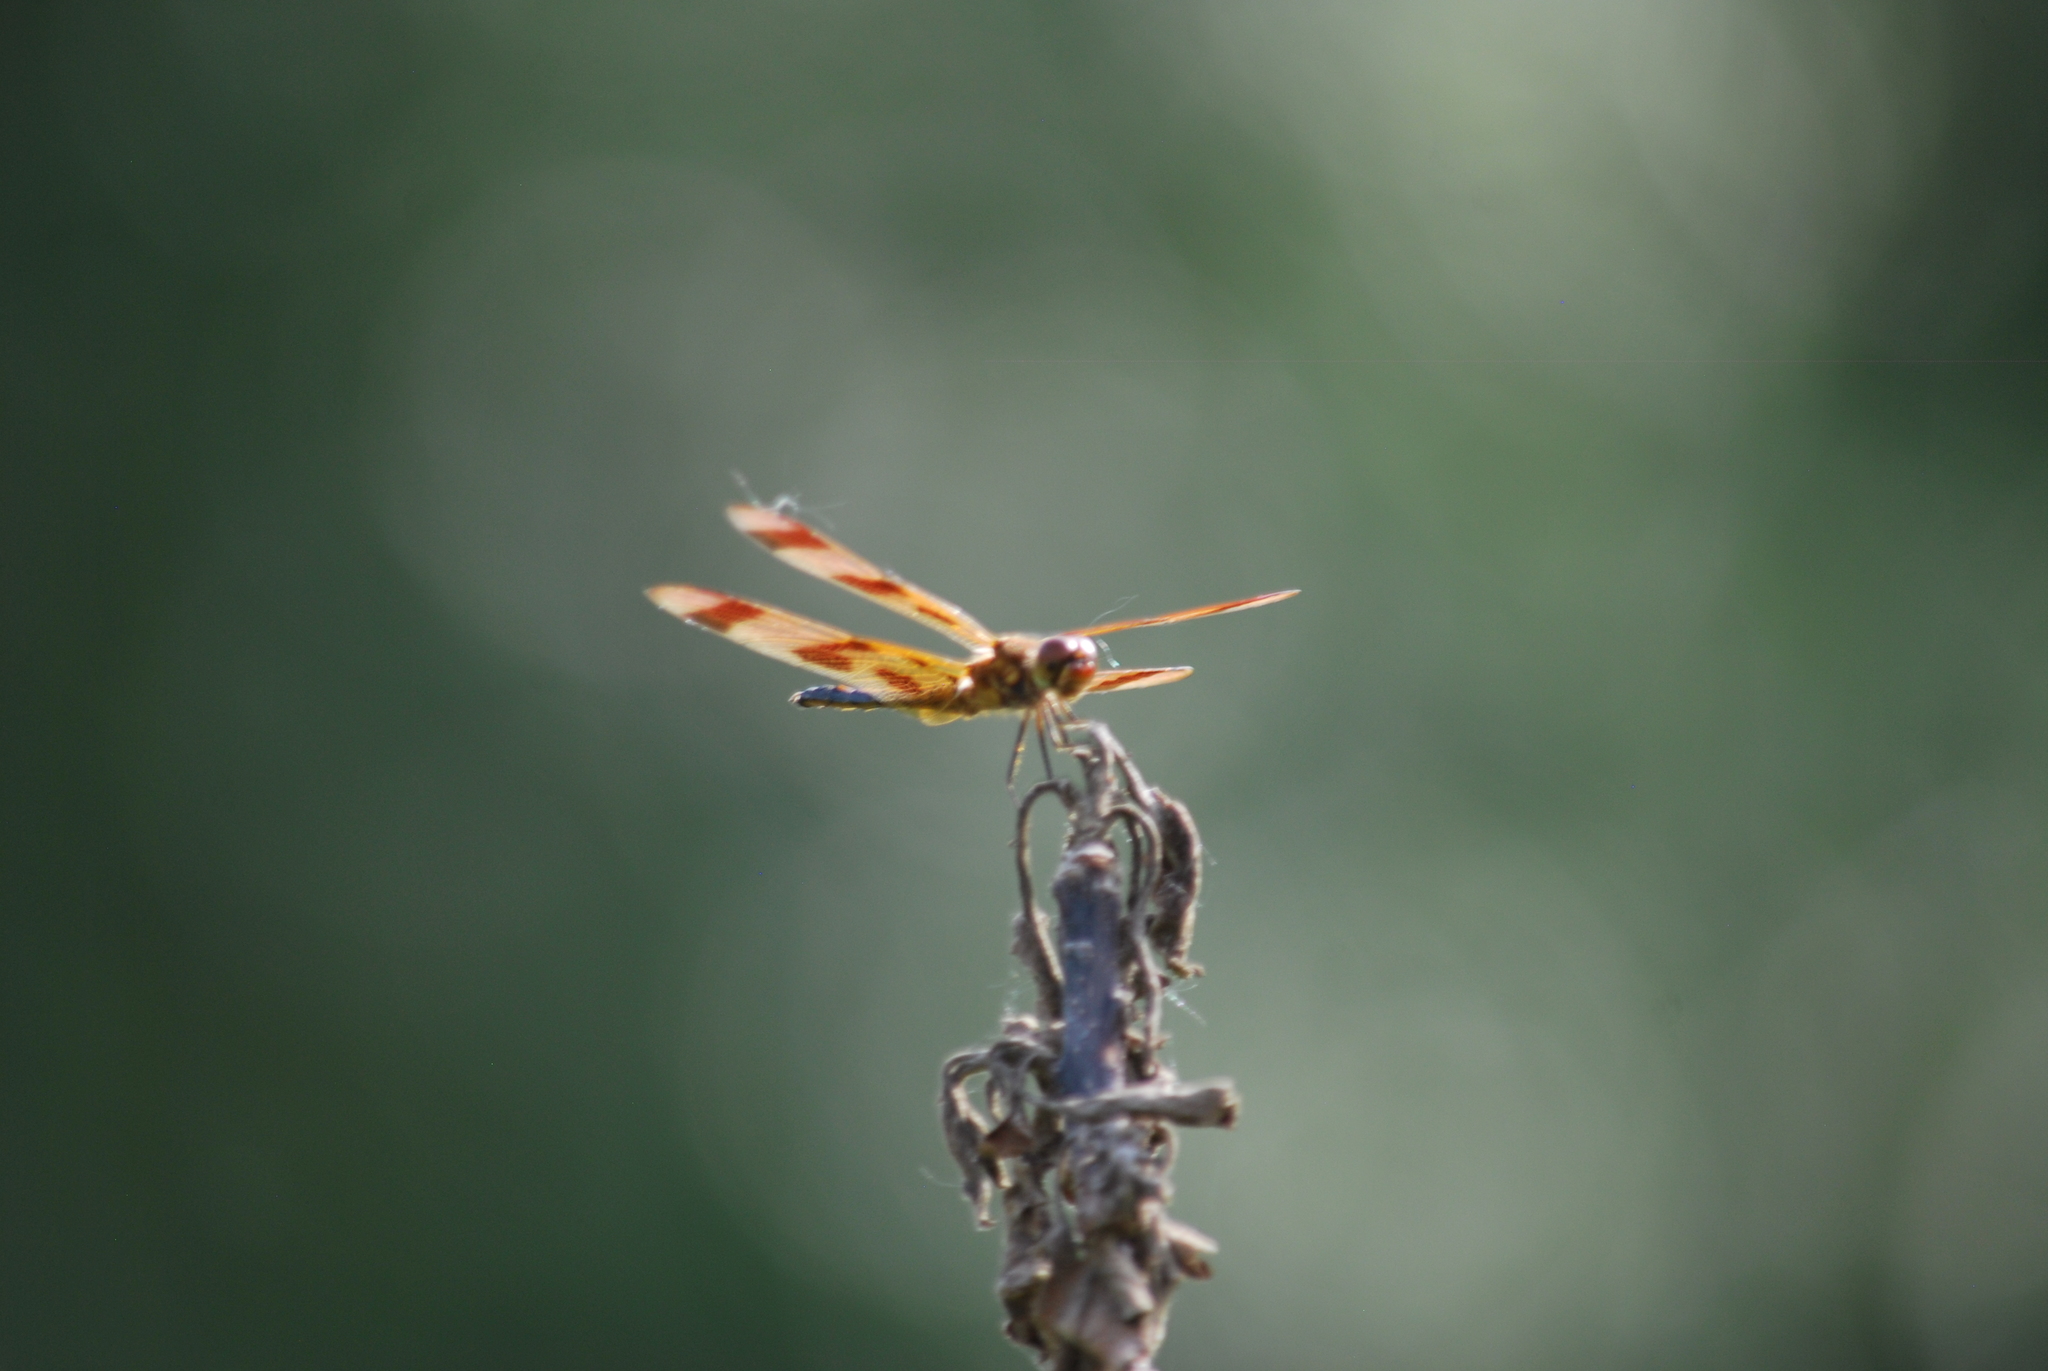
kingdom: Animalia
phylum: Arthropoda
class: Insecta
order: Odonata
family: Libellulidae
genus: Celithemis
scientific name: Celithemis eponina
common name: Halloween pennant
